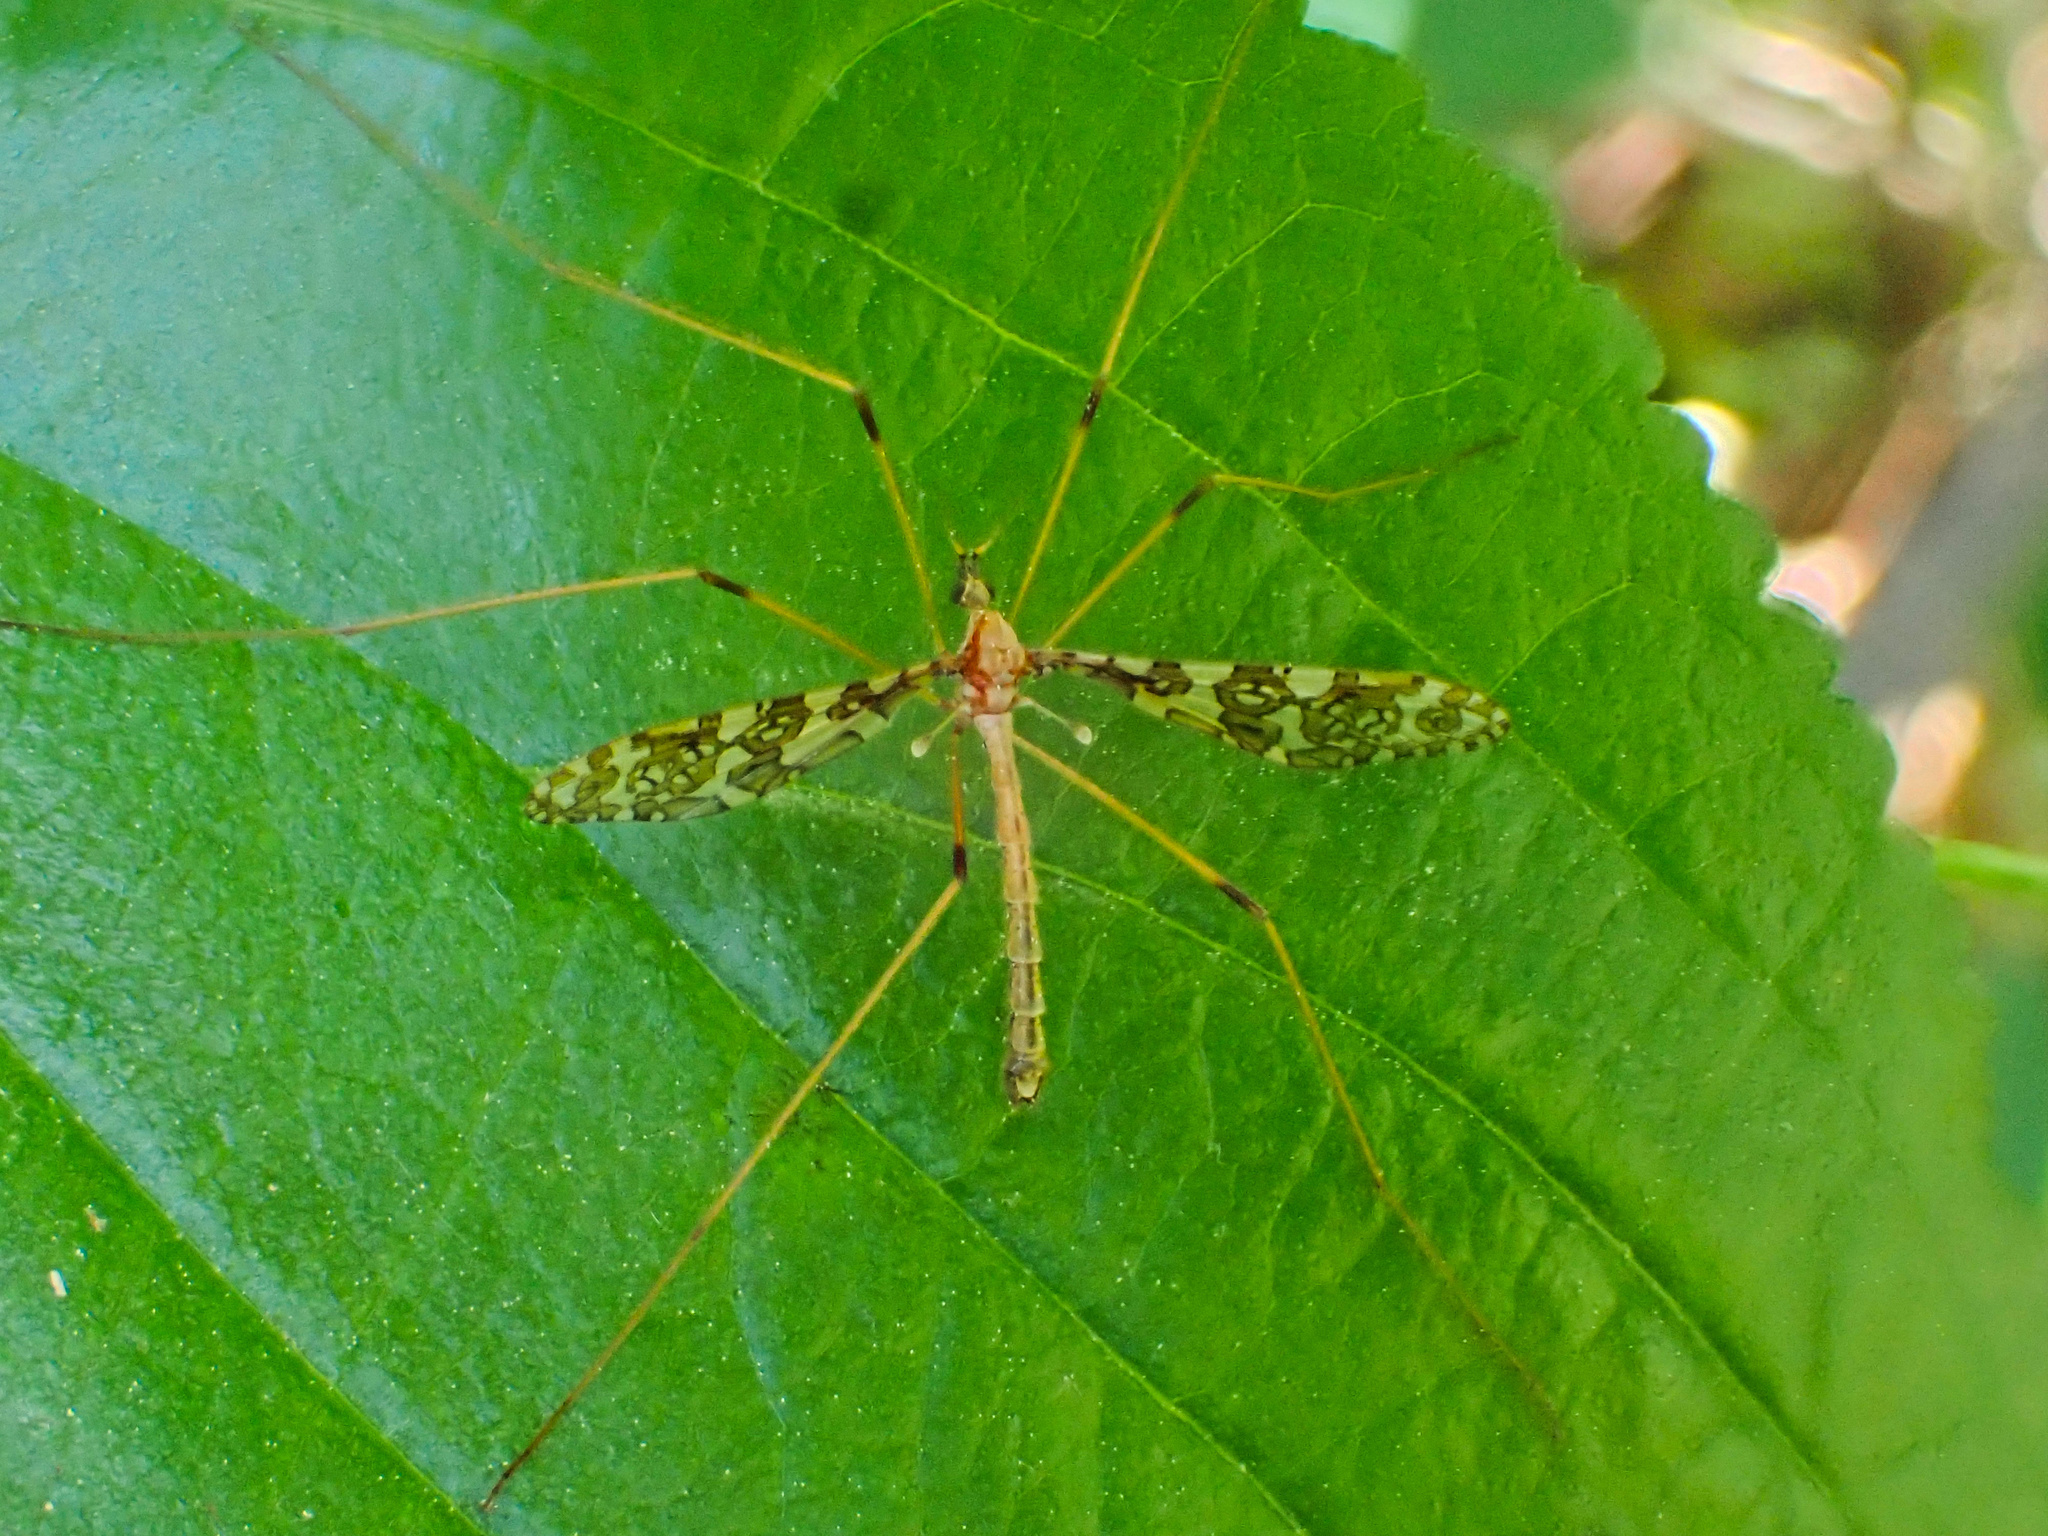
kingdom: Animalia
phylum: Arthropoda
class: Insecta
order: Diptera
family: Limoniidae
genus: Epiphragma
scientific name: Epiphragma fasciapenne
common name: Band-winged crane fly
